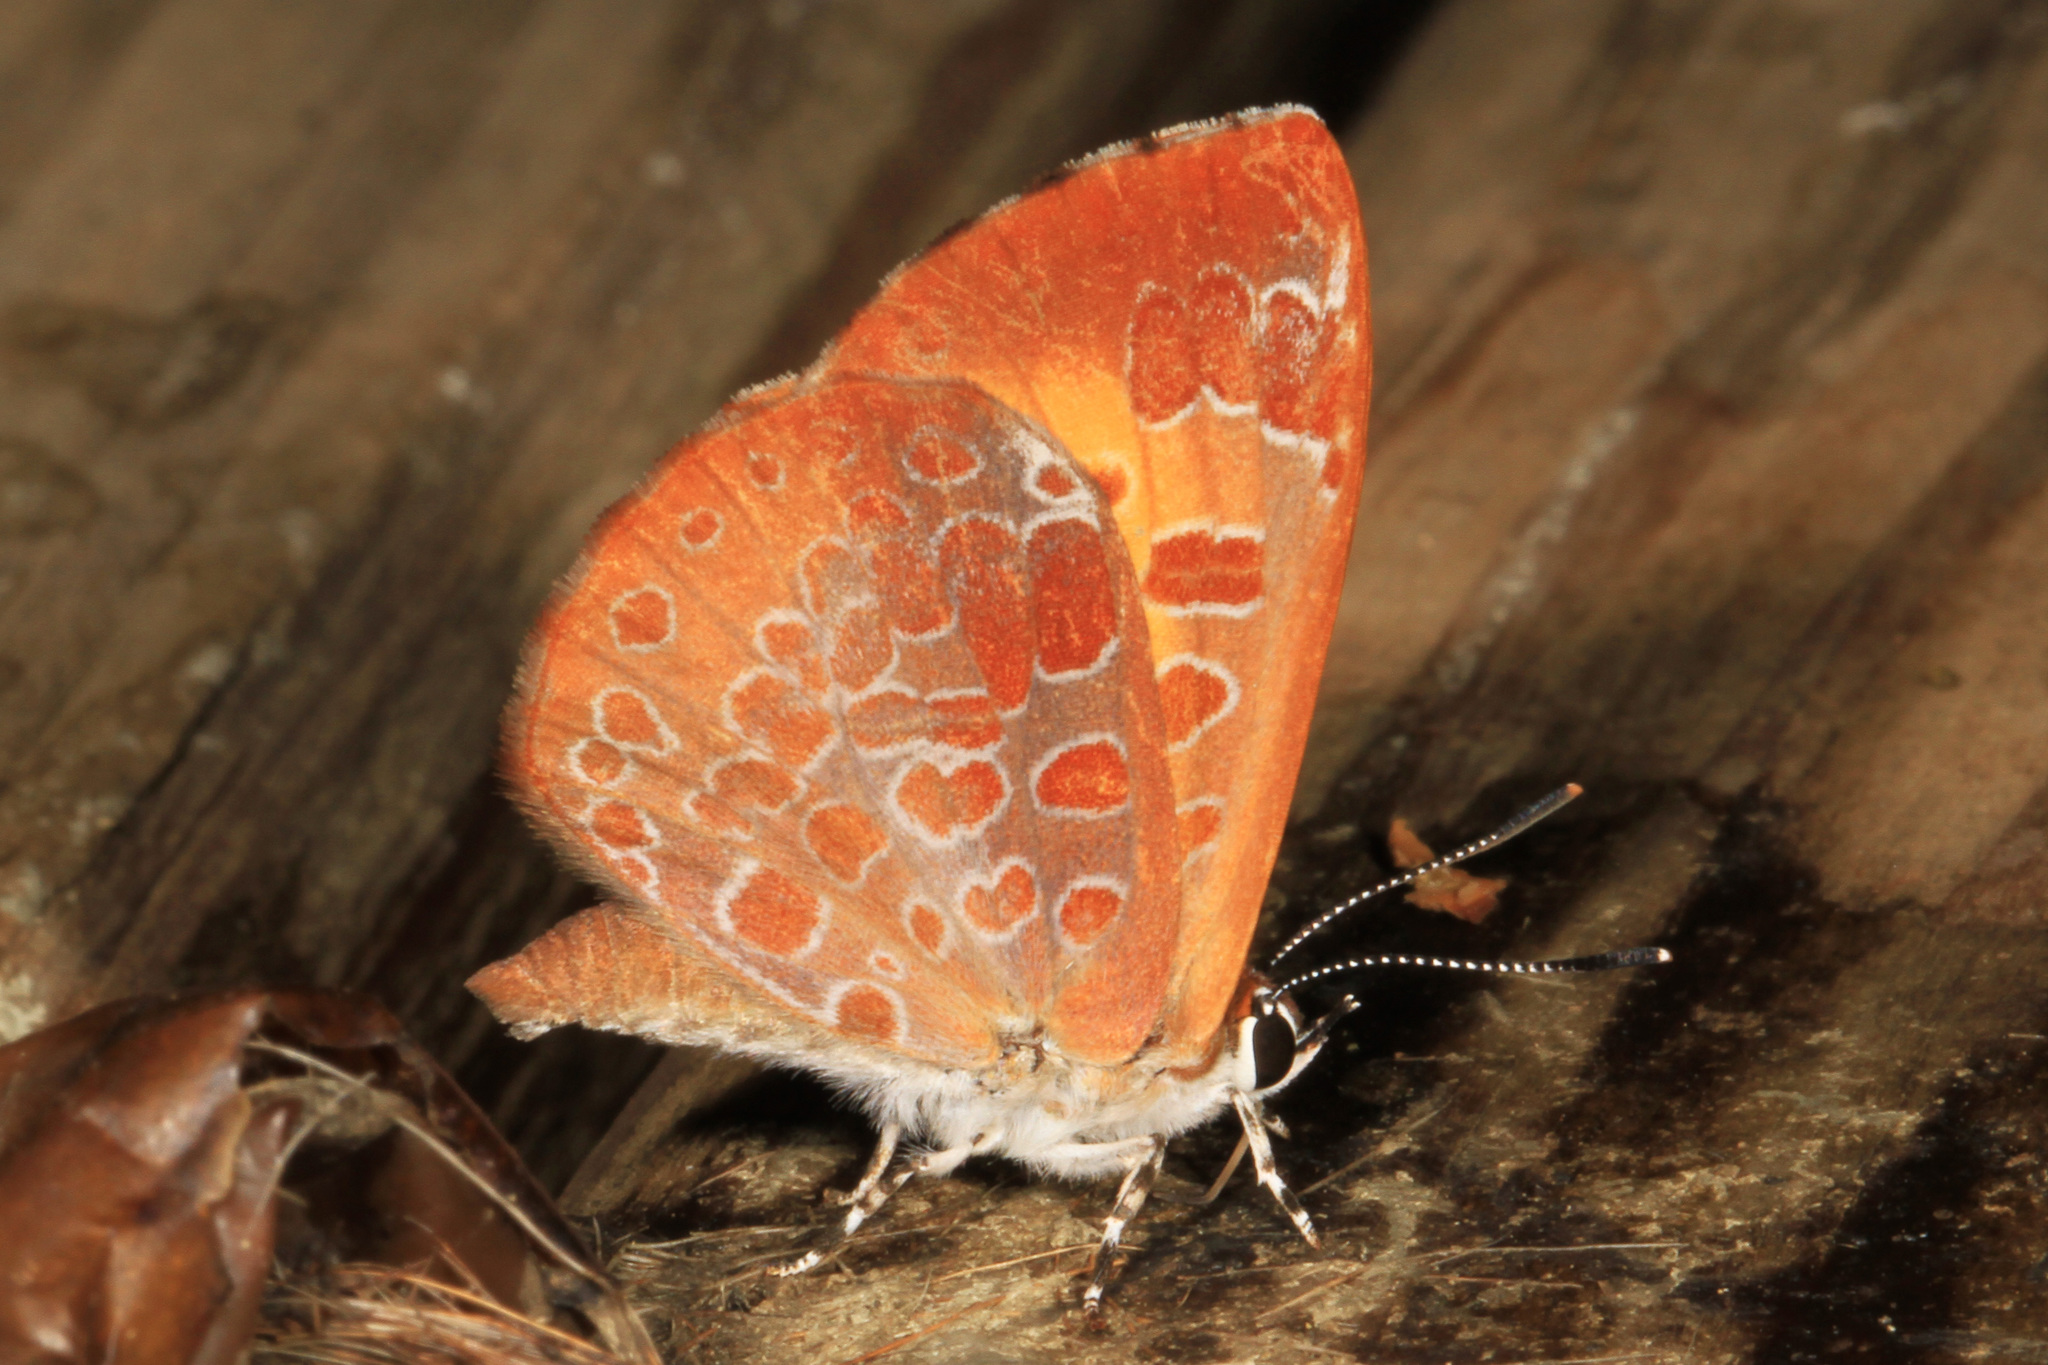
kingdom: Animalia
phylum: Arthropoda
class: Insecta
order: Lepidoptera
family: Lycaenidae
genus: Feniseca
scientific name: Feniseca tarquinius
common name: Harvester
